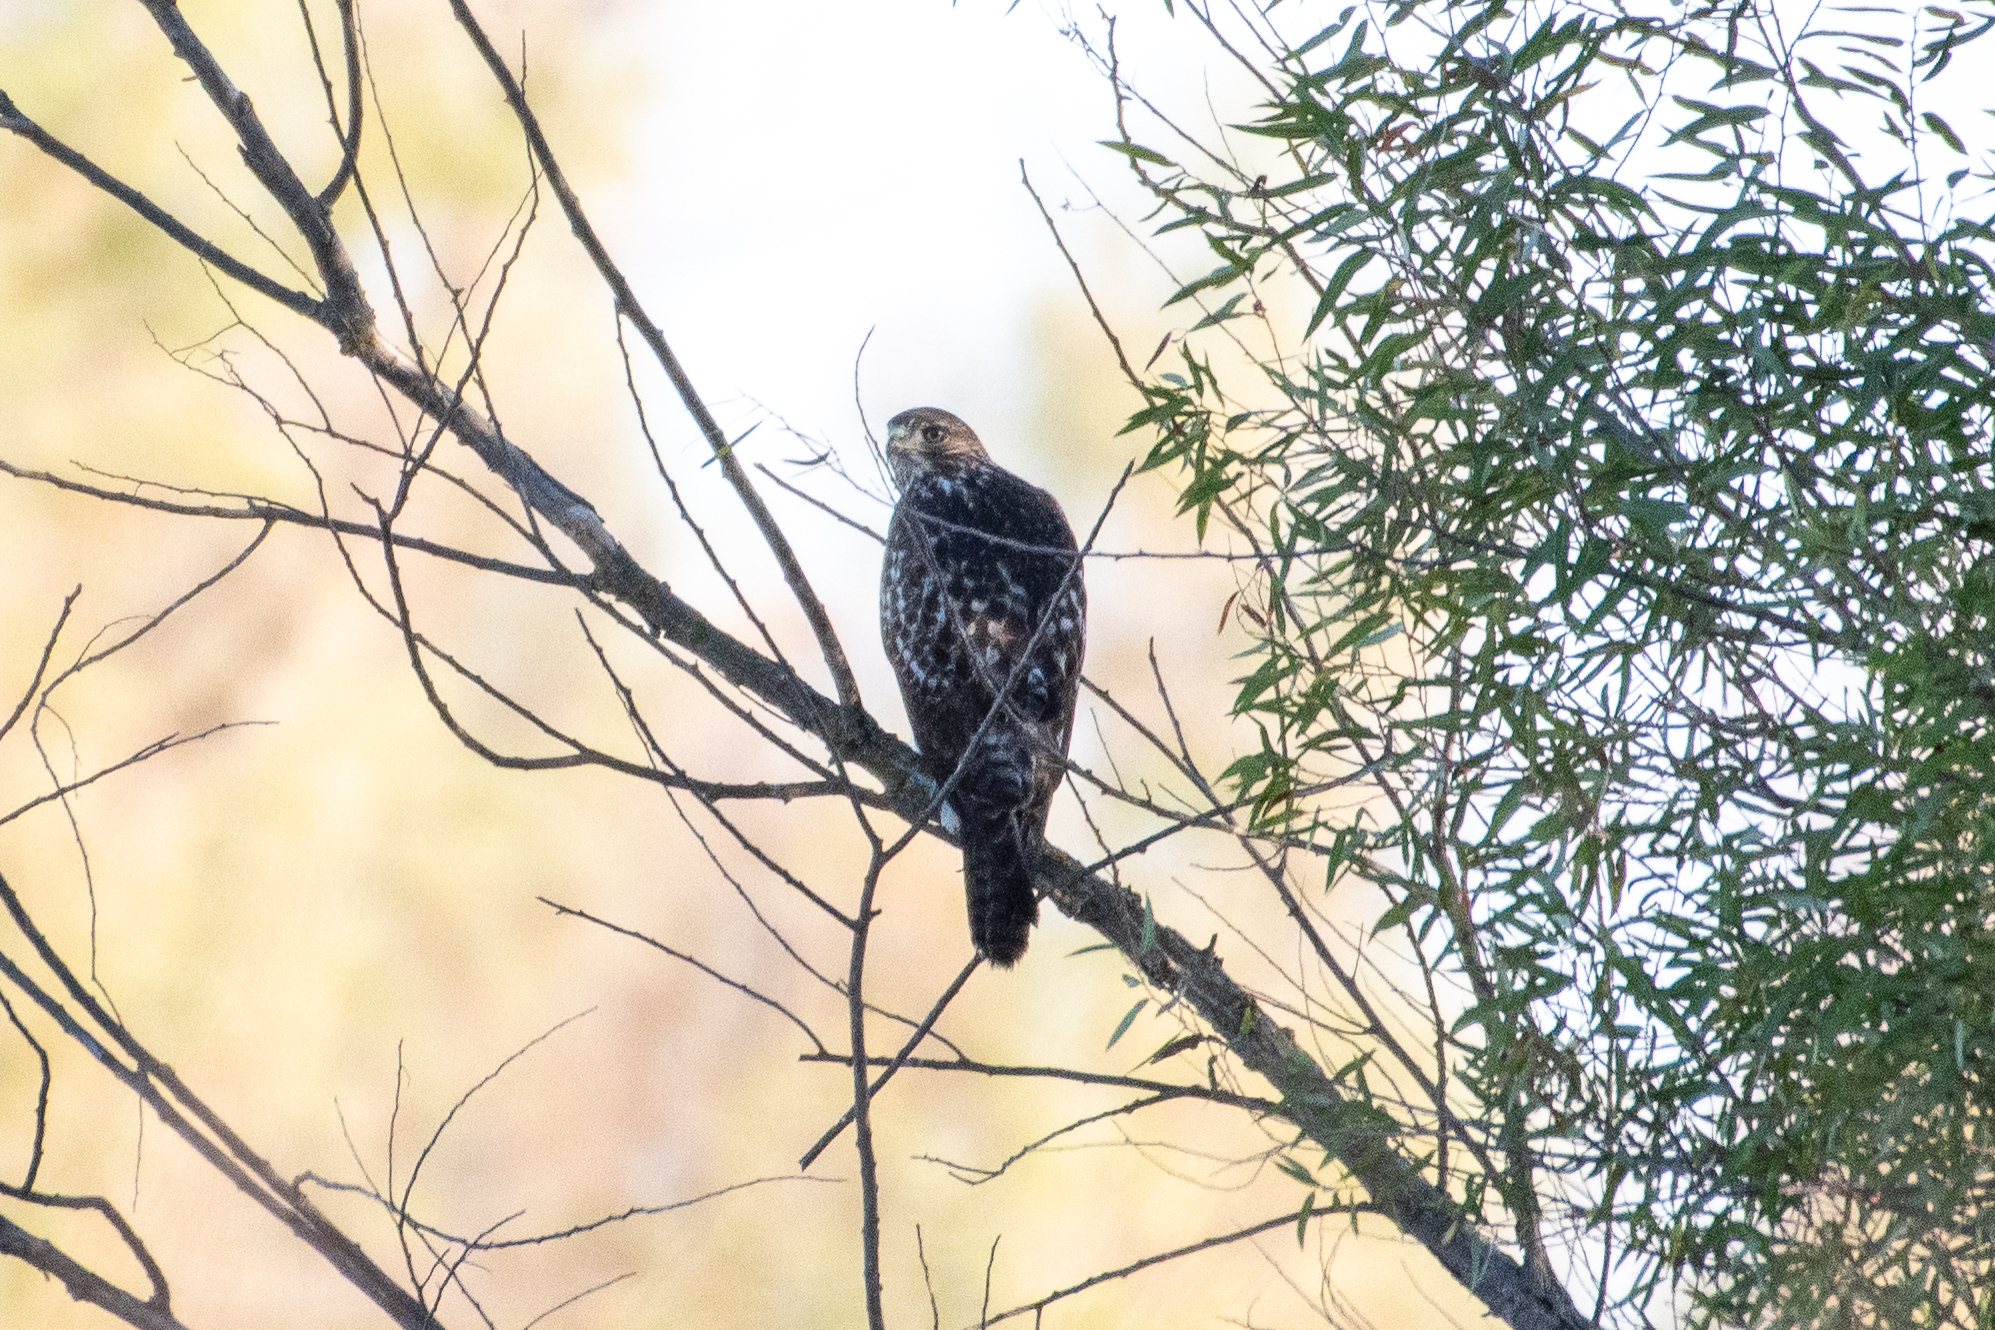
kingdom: Animalia
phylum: Chordata
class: Aves
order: Accipitriformes
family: Accipitridae
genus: Buteo
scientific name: Buteo jamaicensis
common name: Red-tailed hawk
